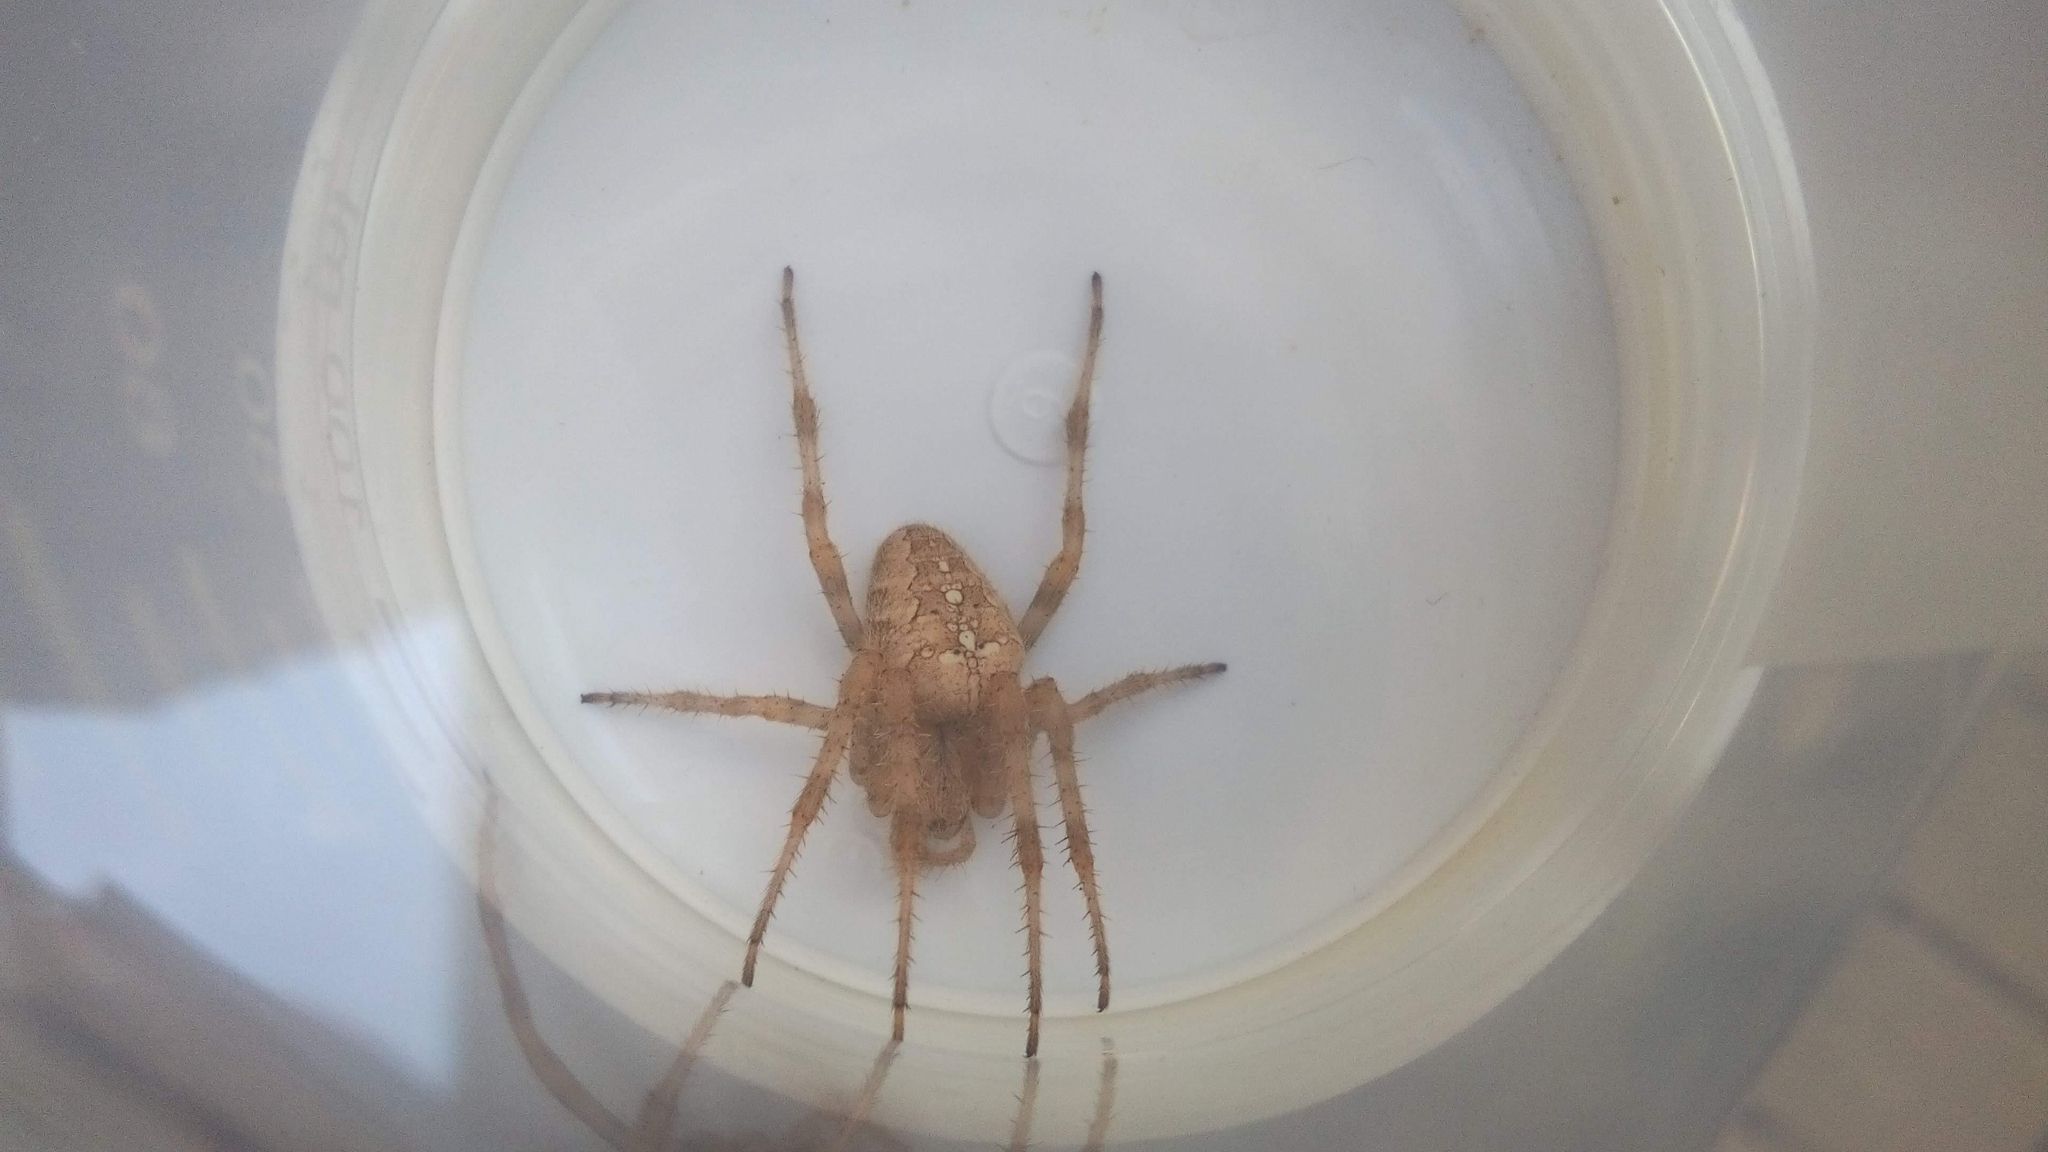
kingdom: Animalia
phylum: Arthropoda
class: Arachnida
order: Araneae
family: Araneidae
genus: Araneus
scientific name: Araneus diadematus
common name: Cross orbweaver
